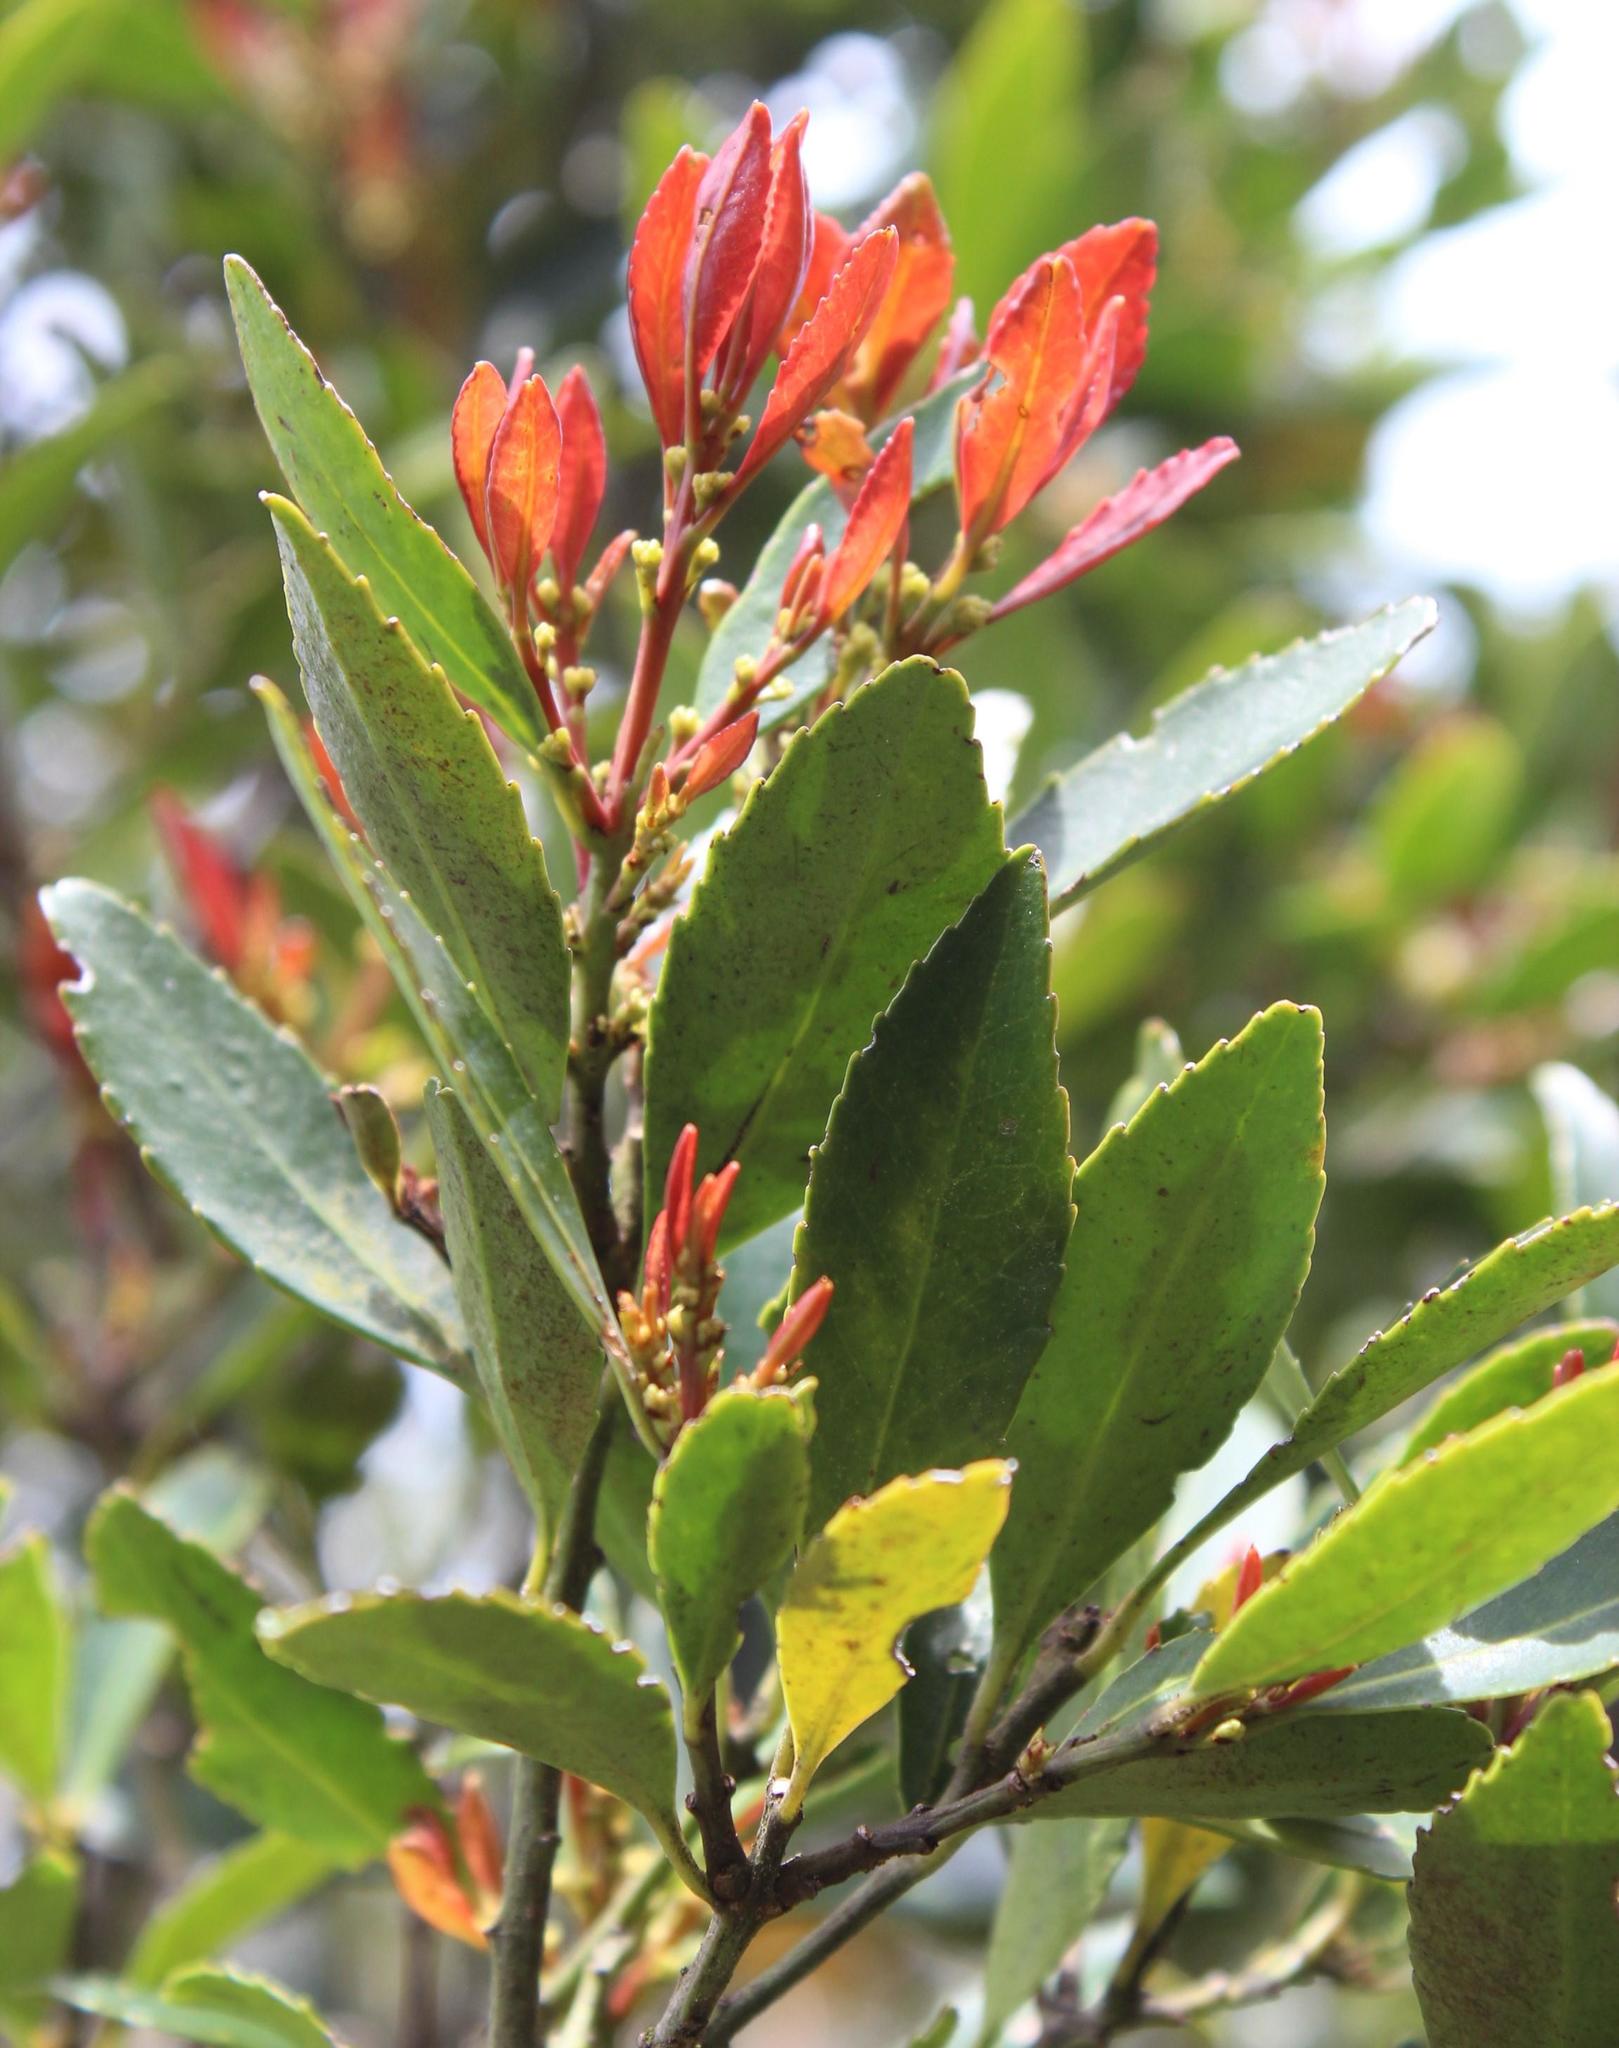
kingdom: Plantae
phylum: Tracheophyta
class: Magnoliopsida
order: Celastrales
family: Celastraceae
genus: Elaeodendron
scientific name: Elaeodendron schinoides
